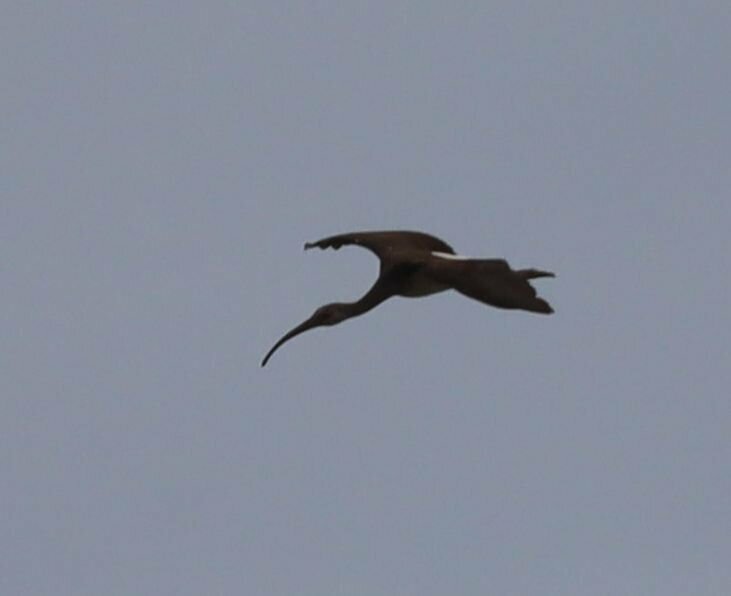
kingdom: Animalia
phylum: Chordata
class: Aves
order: Pelecaniformes
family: Threskiornithidae
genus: Eudocimus
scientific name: Eudocimus albus
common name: White ibis
